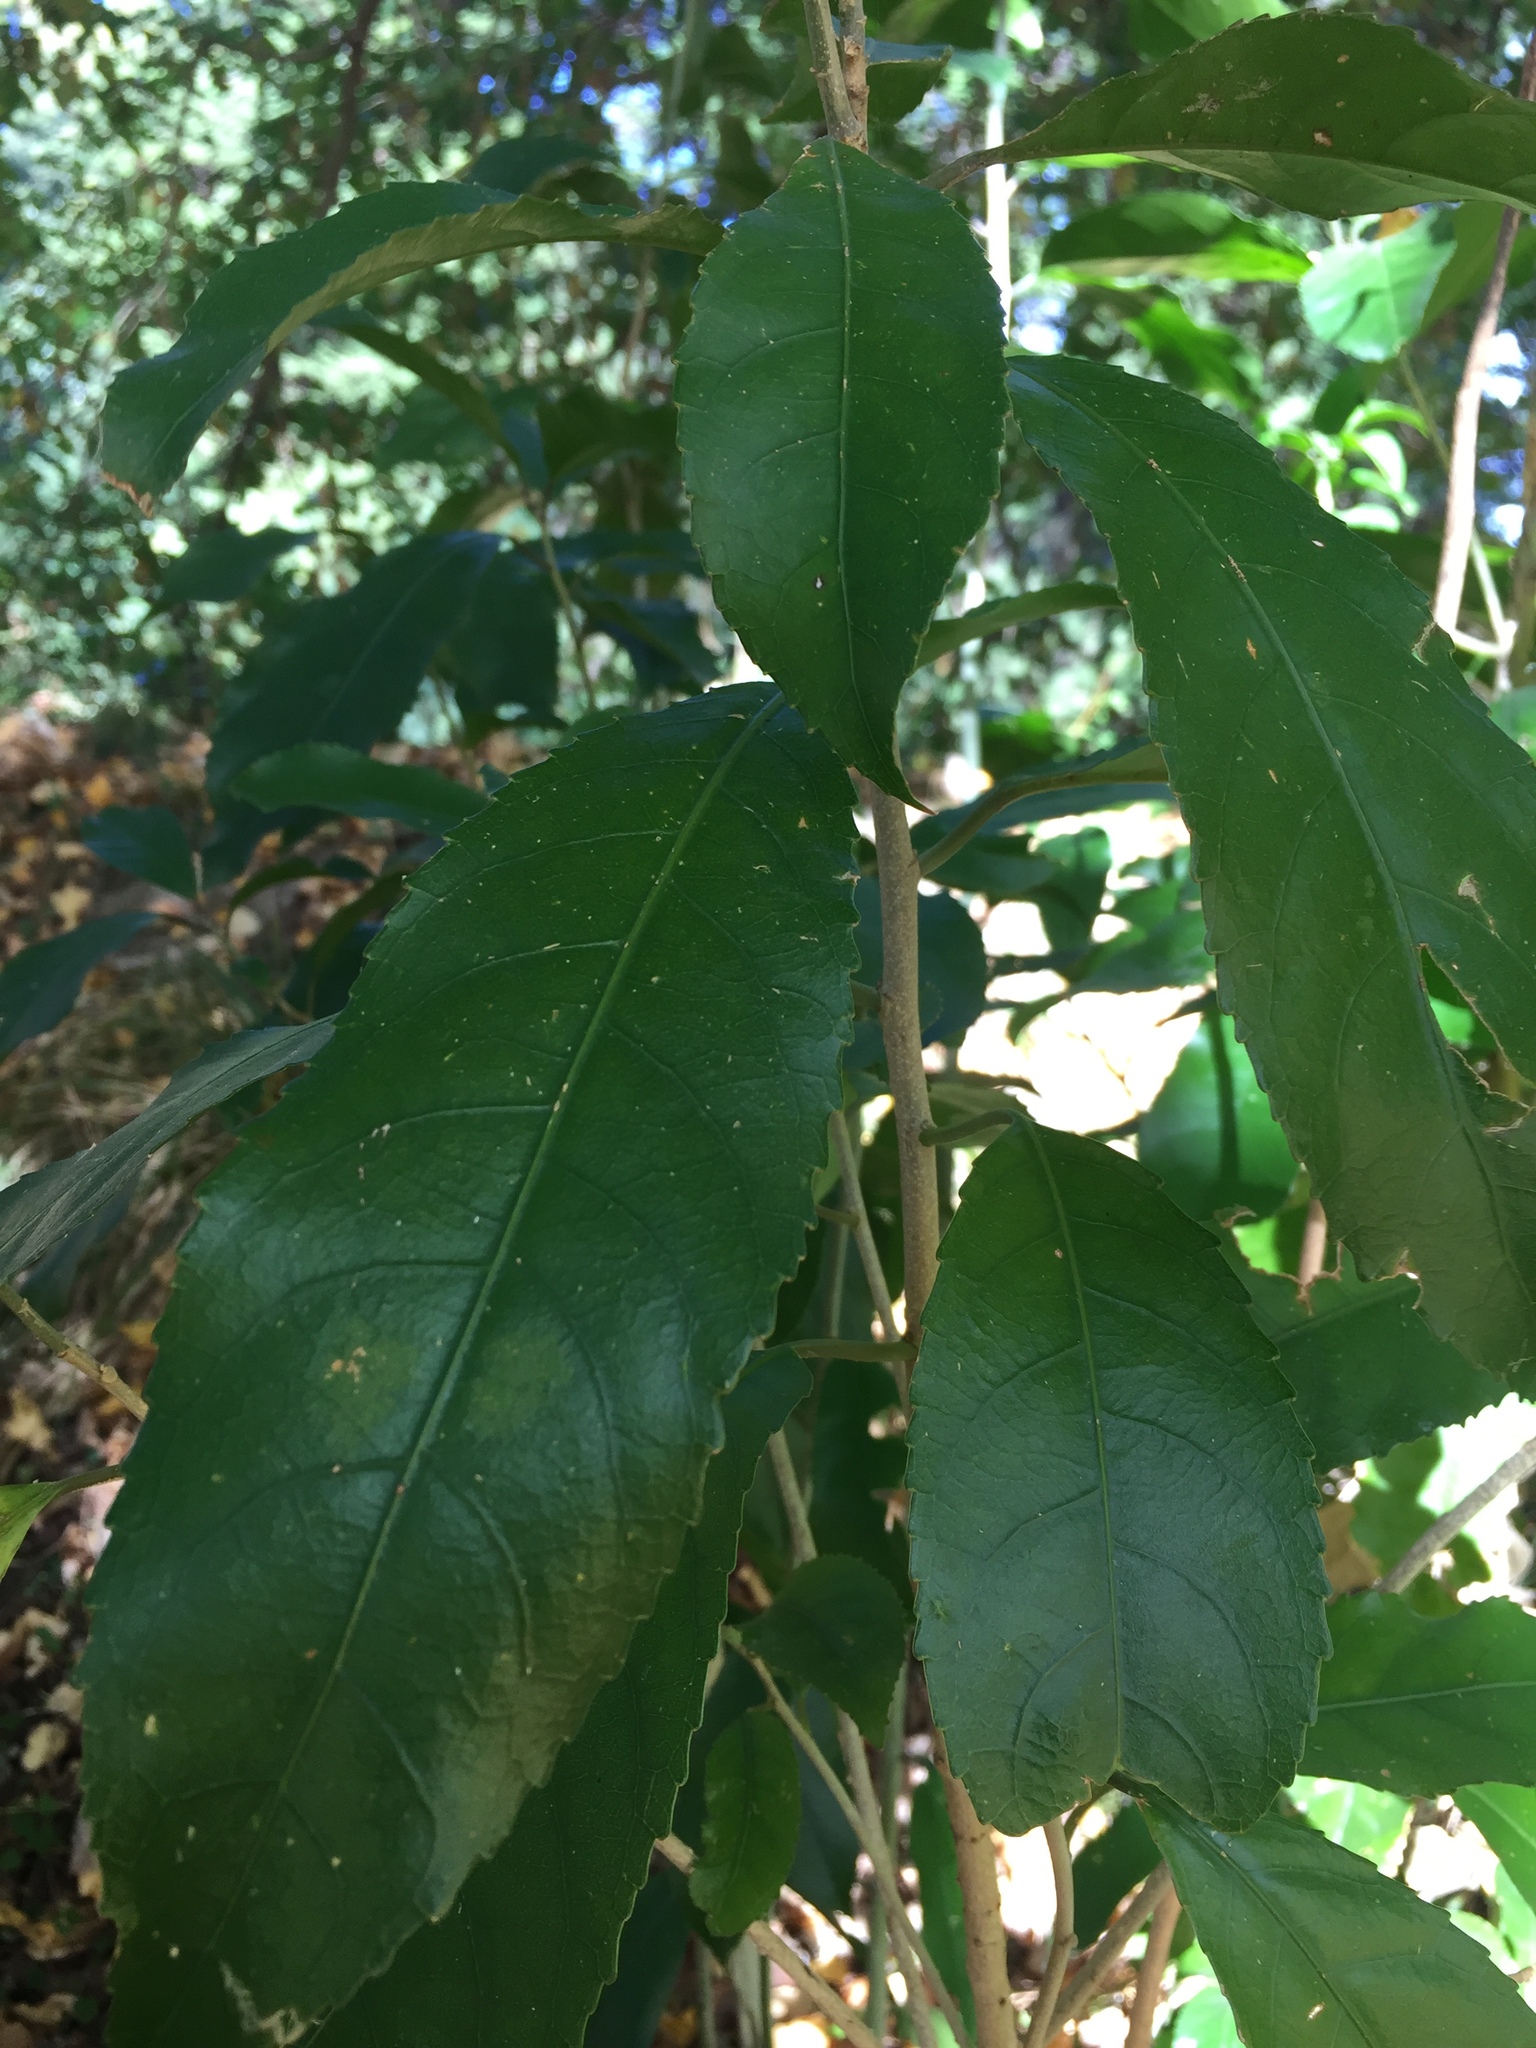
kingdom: Plantae
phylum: Tracheophyta
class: Magnoliopsida
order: Malpighiales
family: Violaceae
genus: Melicytus
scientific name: Melicytus ramiflorus
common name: Mahoe
